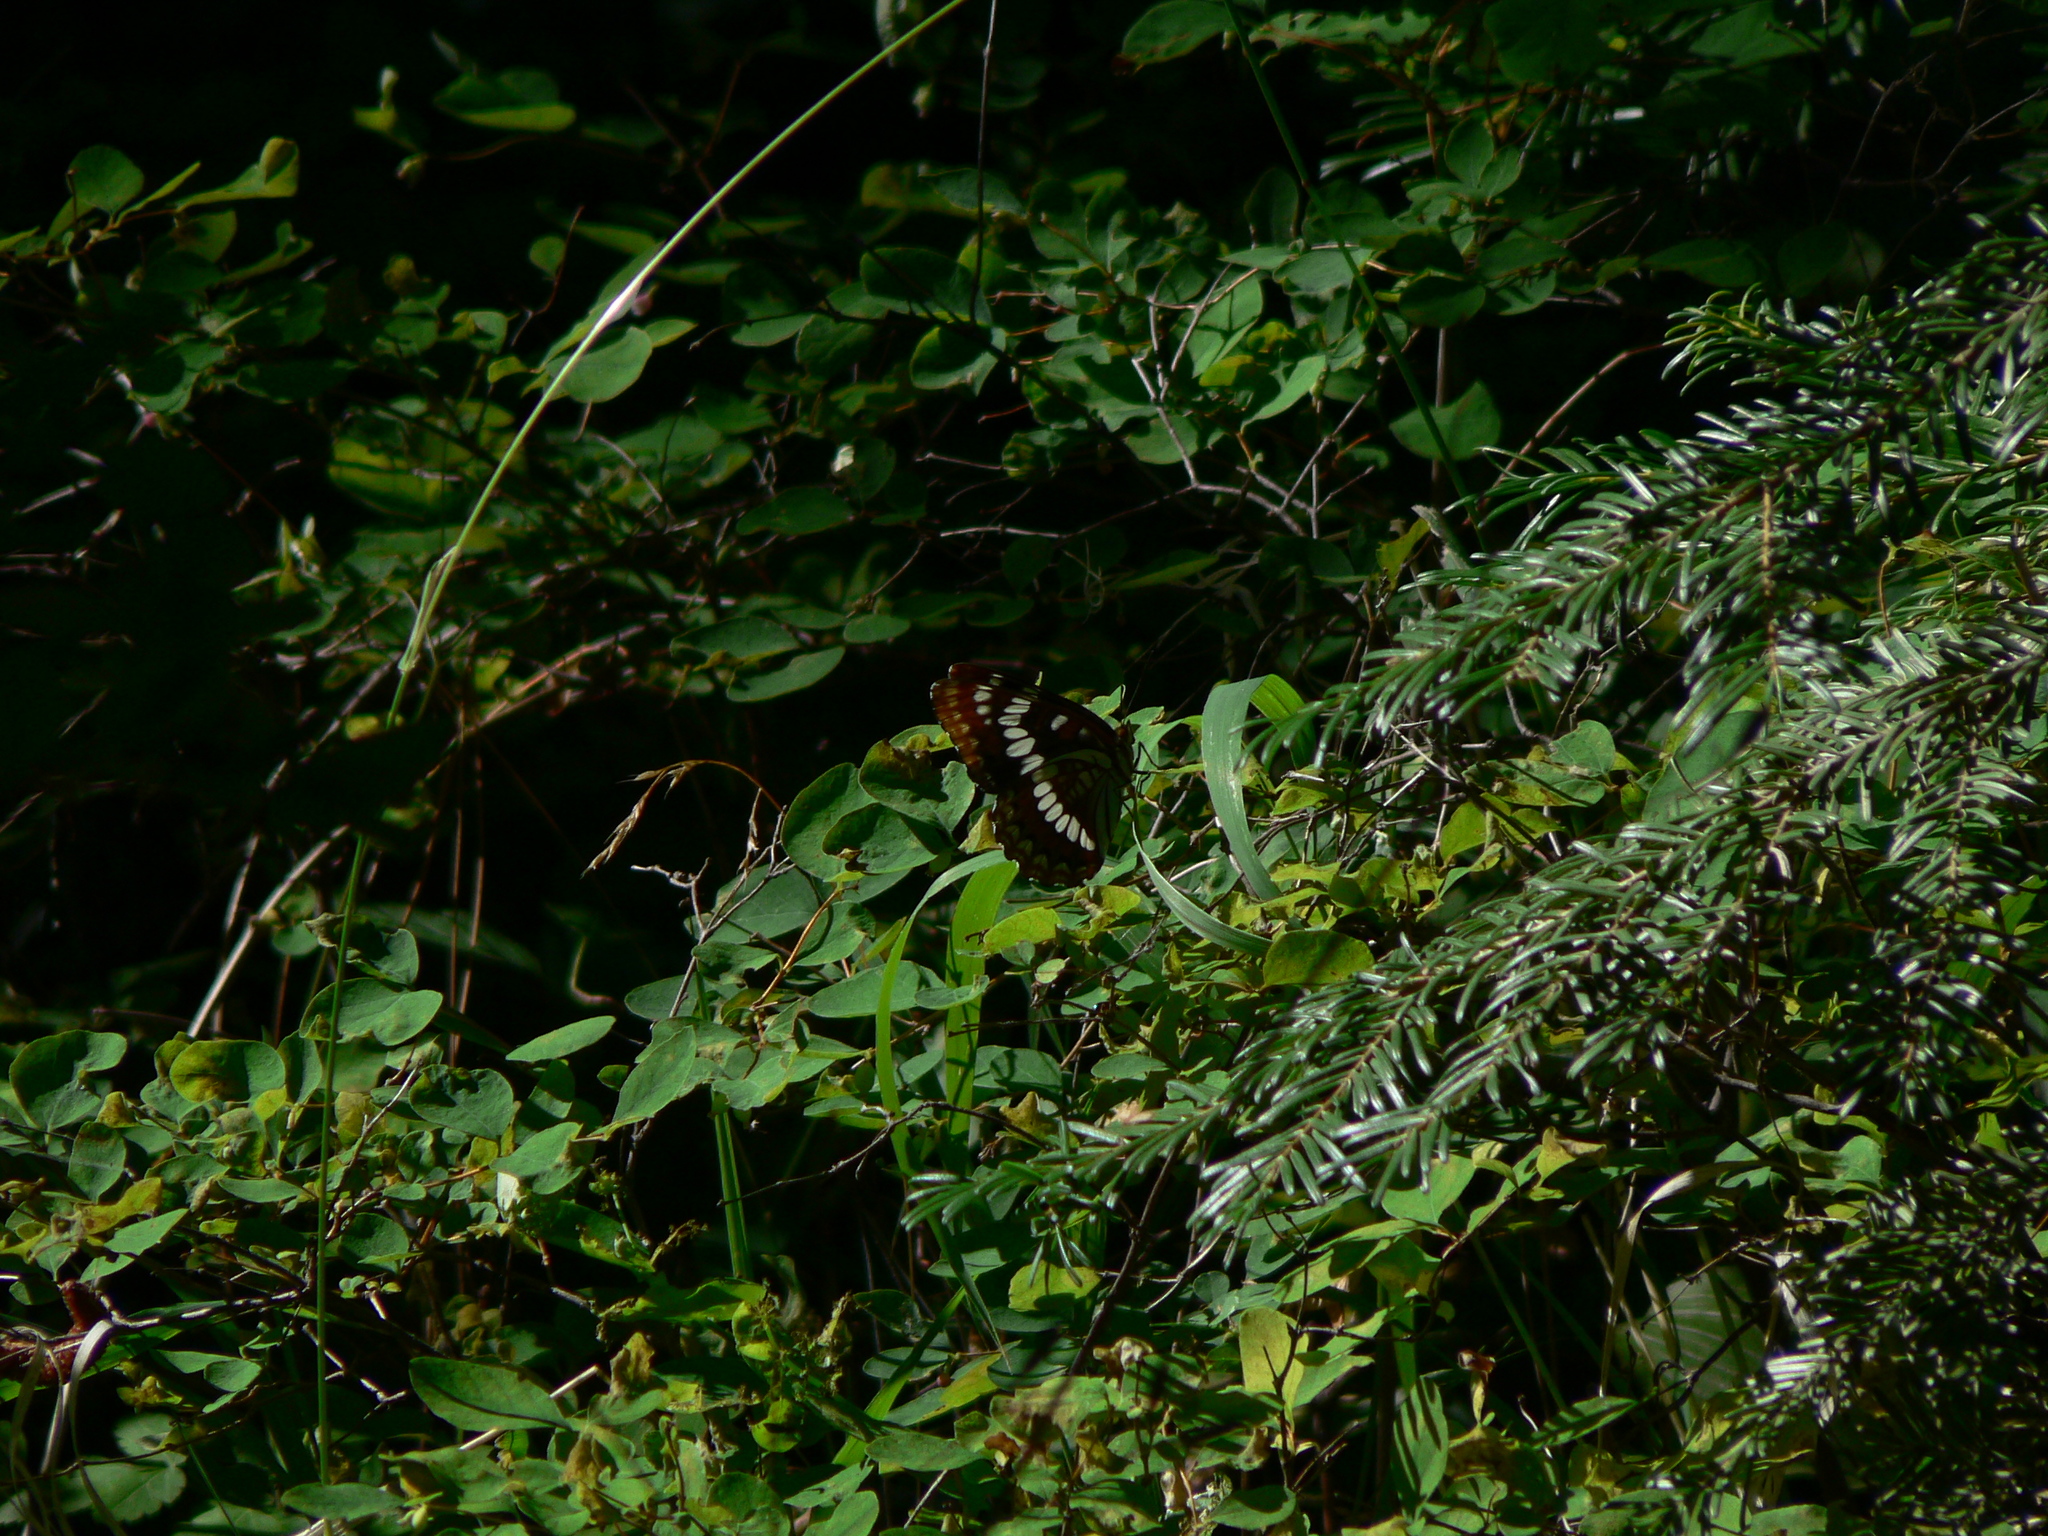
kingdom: Animalia
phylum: Arthropoda
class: Insecta
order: Lepidoptera
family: Nymphalidae
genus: Limenitis
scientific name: Limenitis lorquini
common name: Lorquin's admiral
